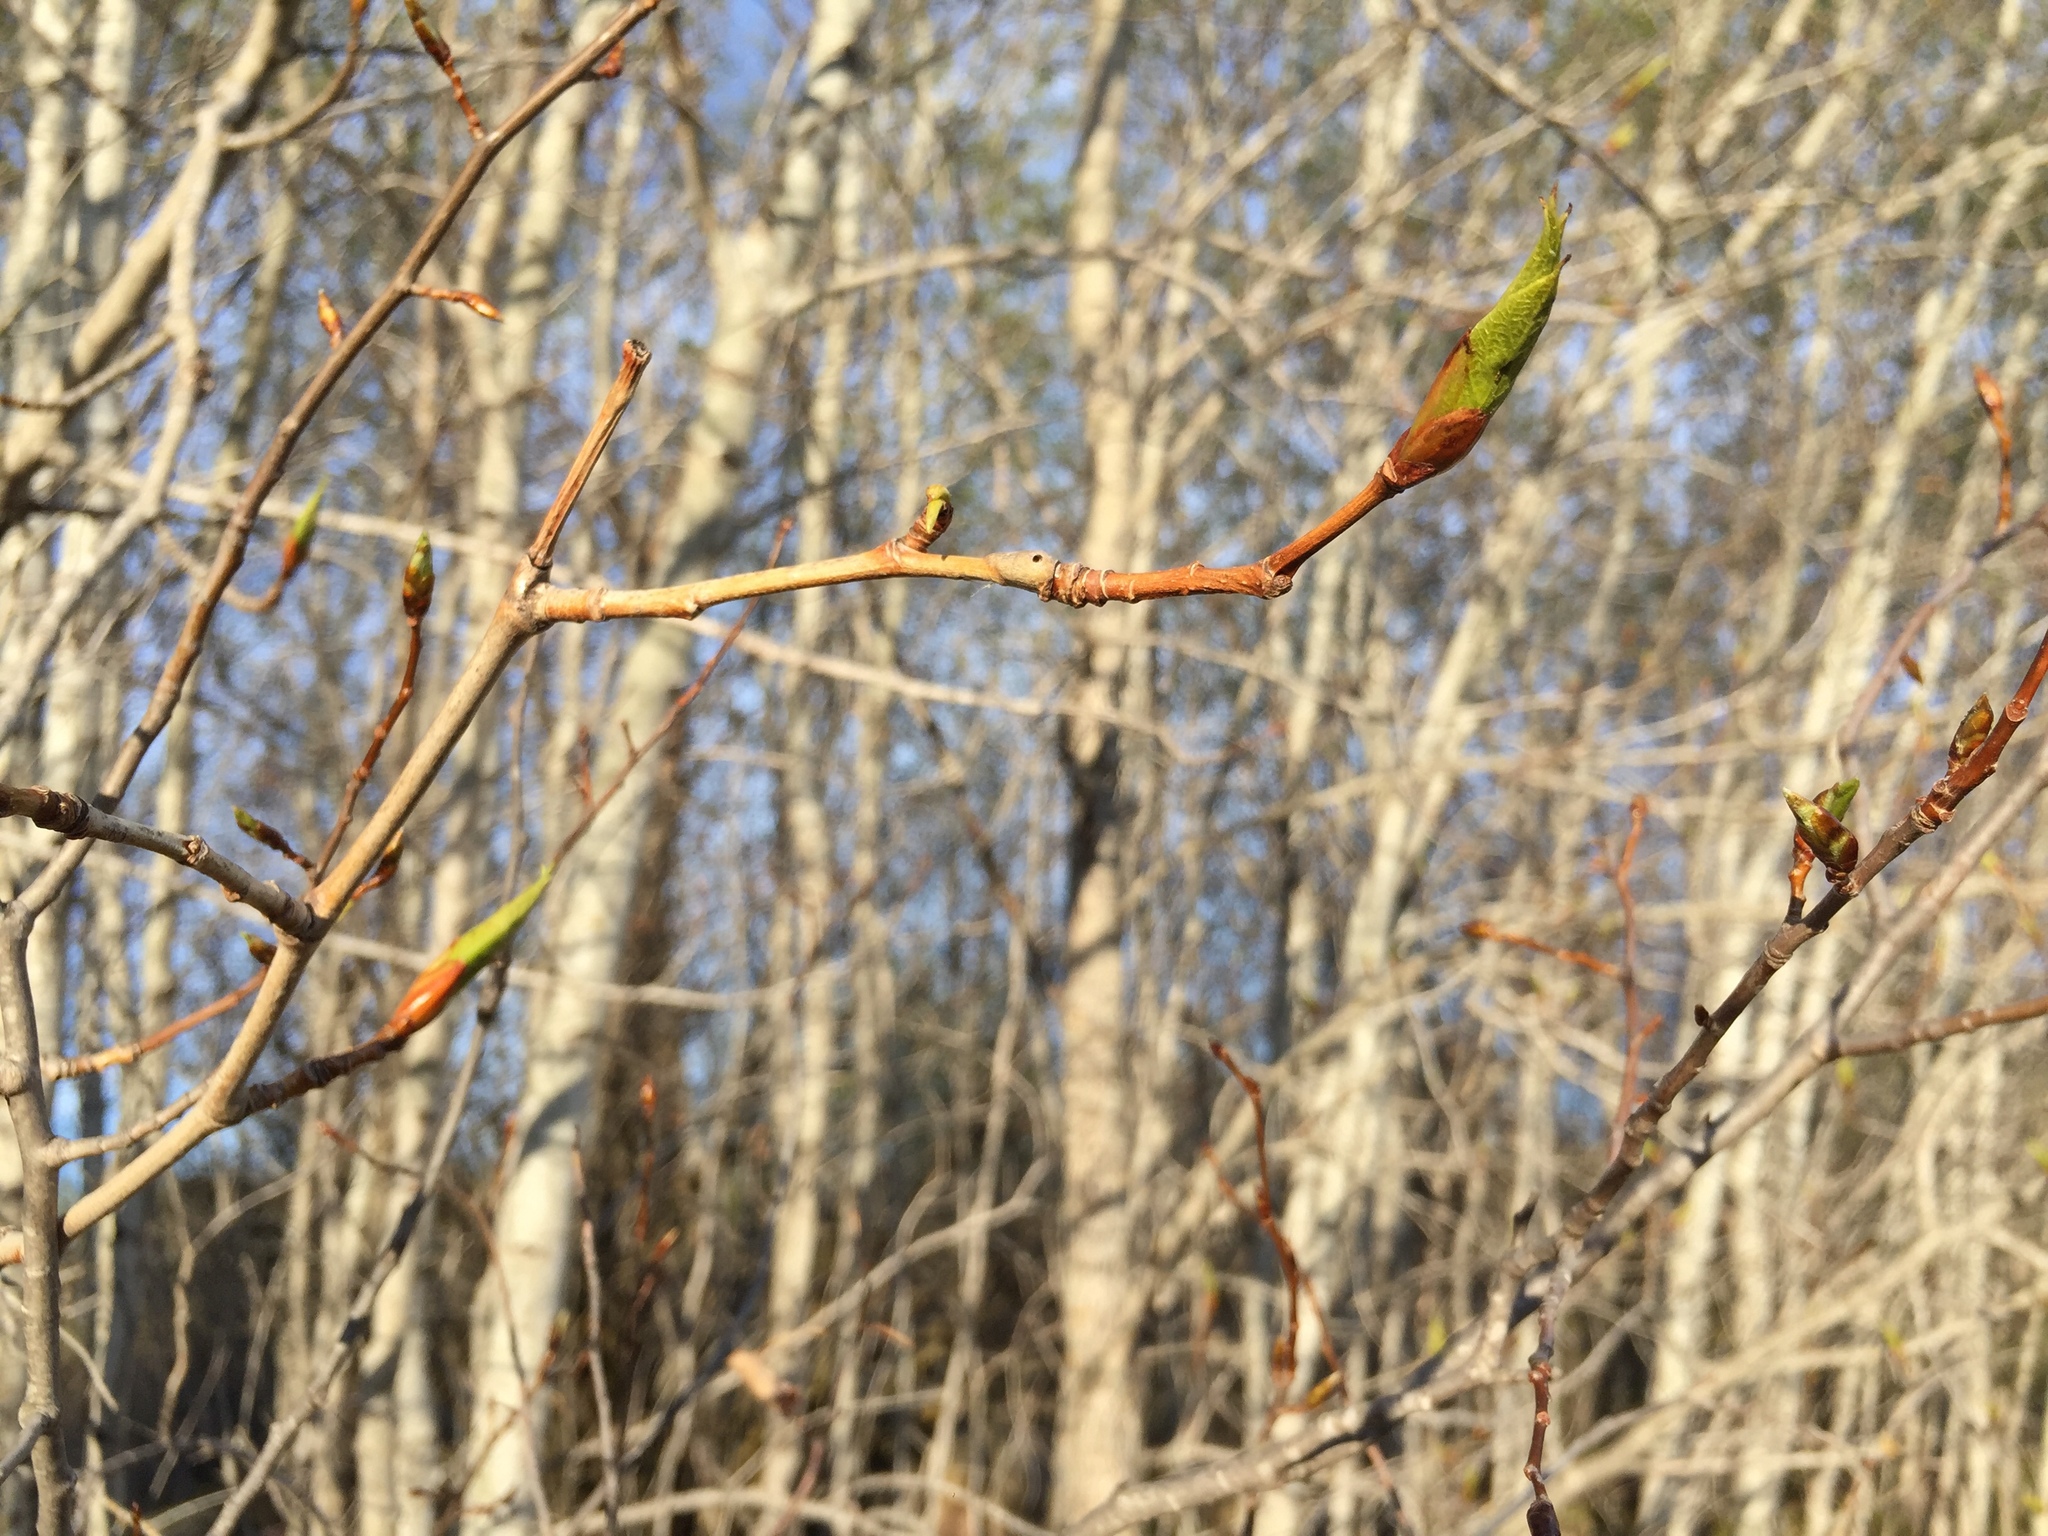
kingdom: Plantae
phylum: Tracheophyta
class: Magnoliopsida
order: Malpighiales
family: Salicaceae
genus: Populus
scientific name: Populus balsamifera
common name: Balsam poplar
